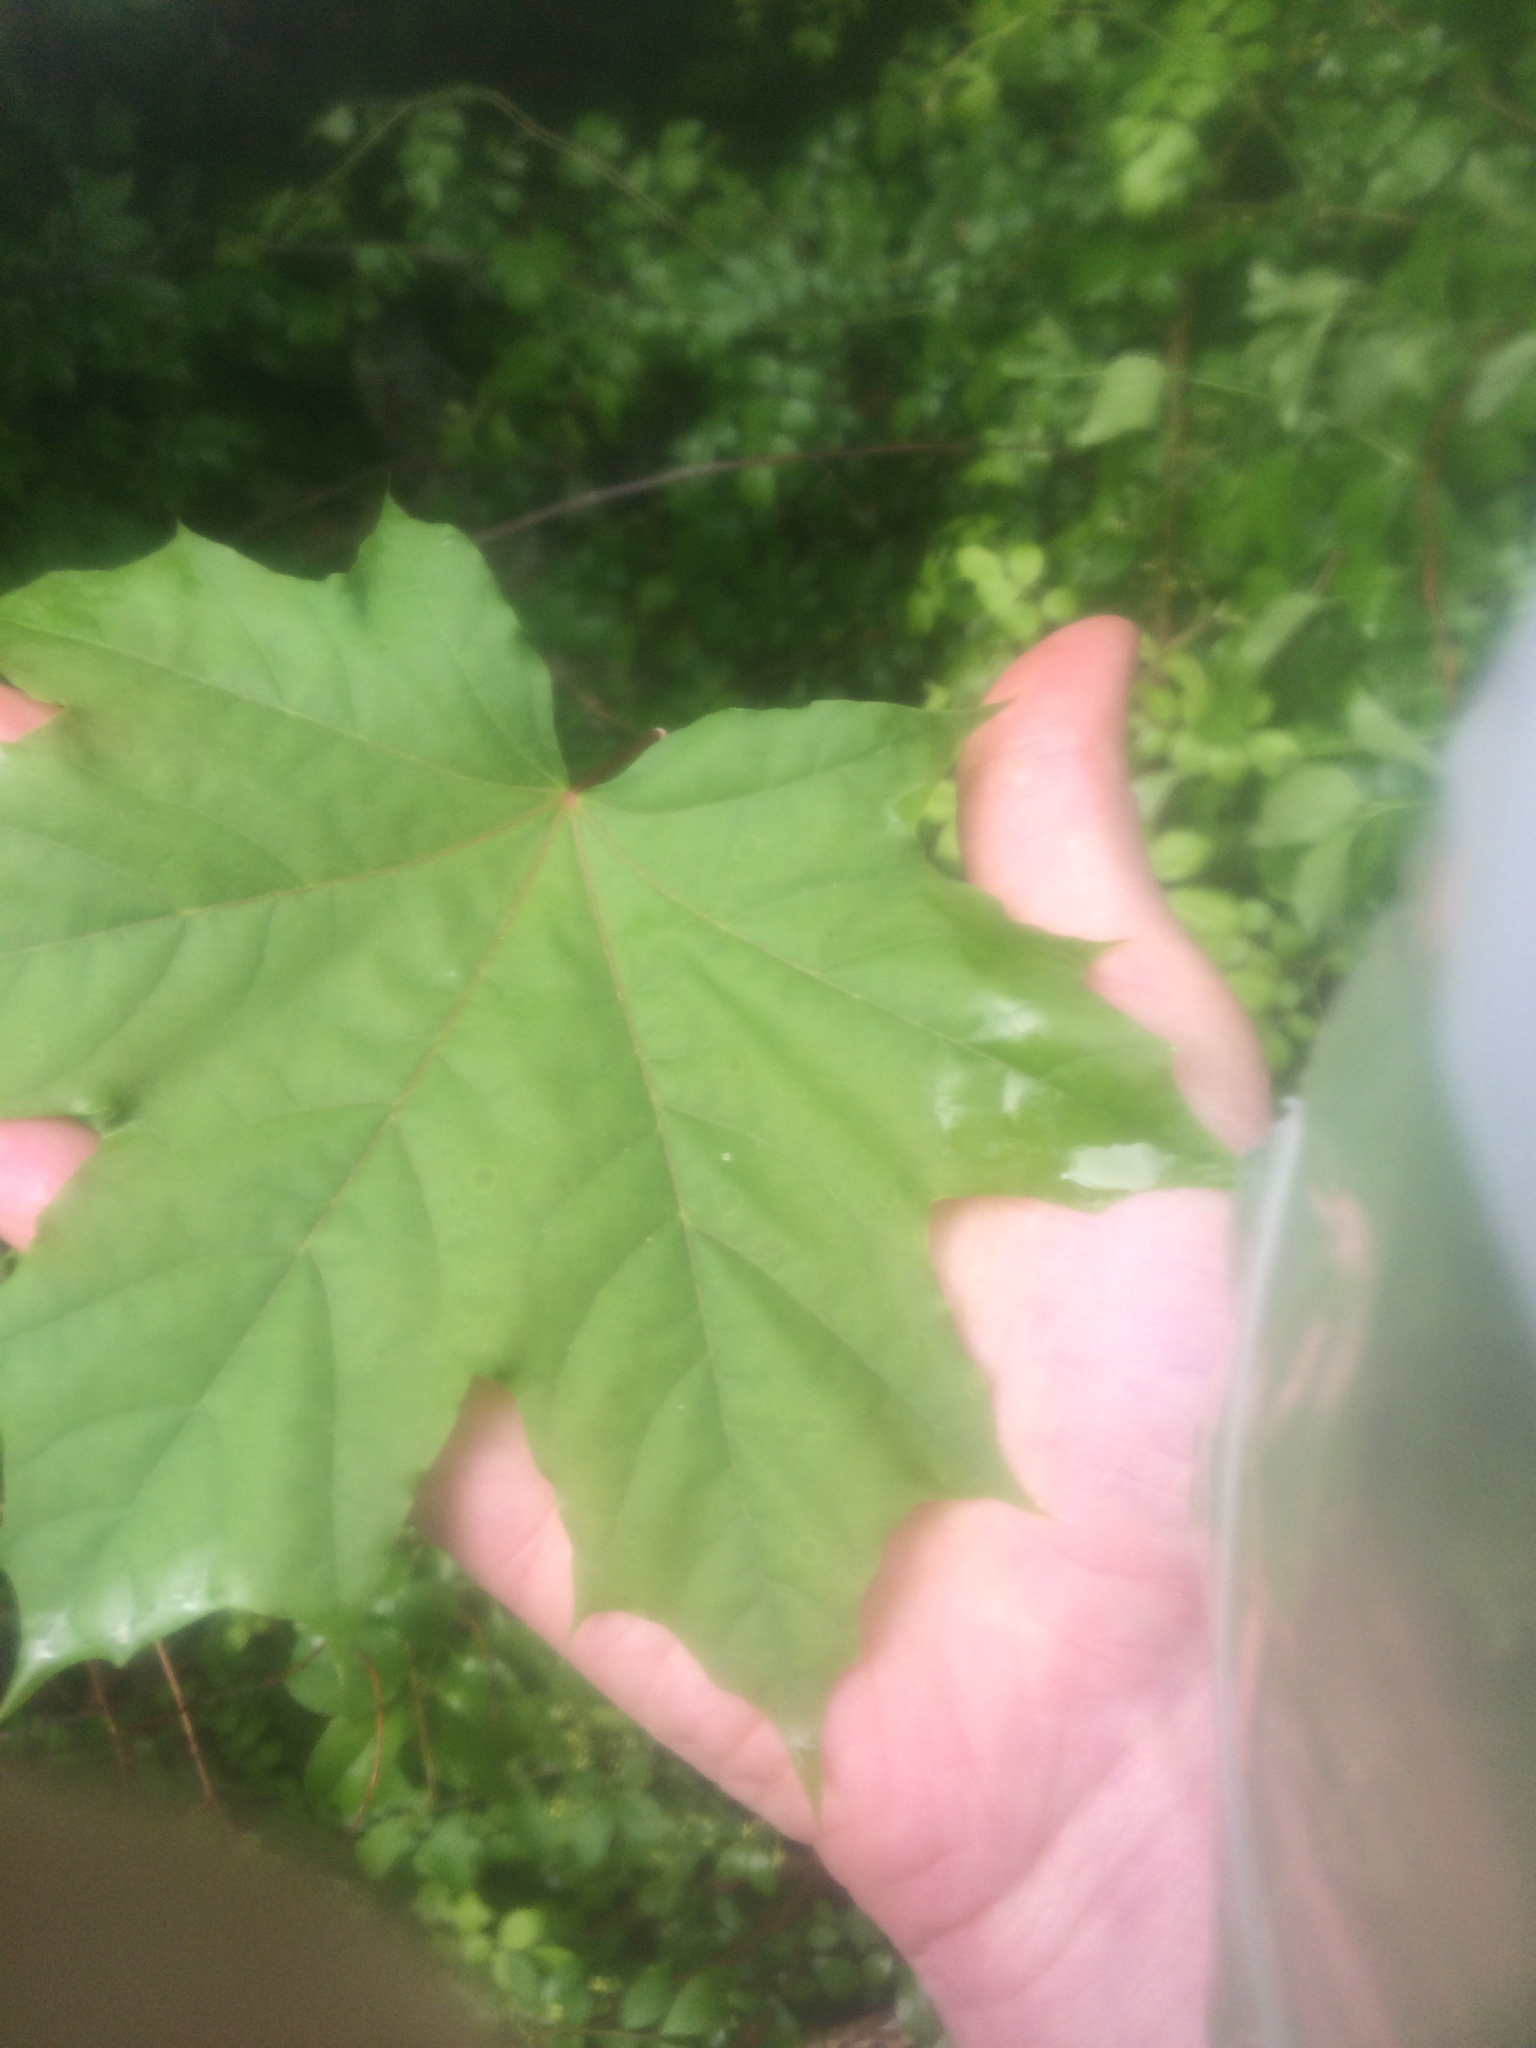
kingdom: Plantae
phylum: Tracheophyta
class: Magnoliopsida
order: Sapindales
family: Sapindaceae
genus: Acer
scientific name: Acer platanoides
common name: Norway maple
